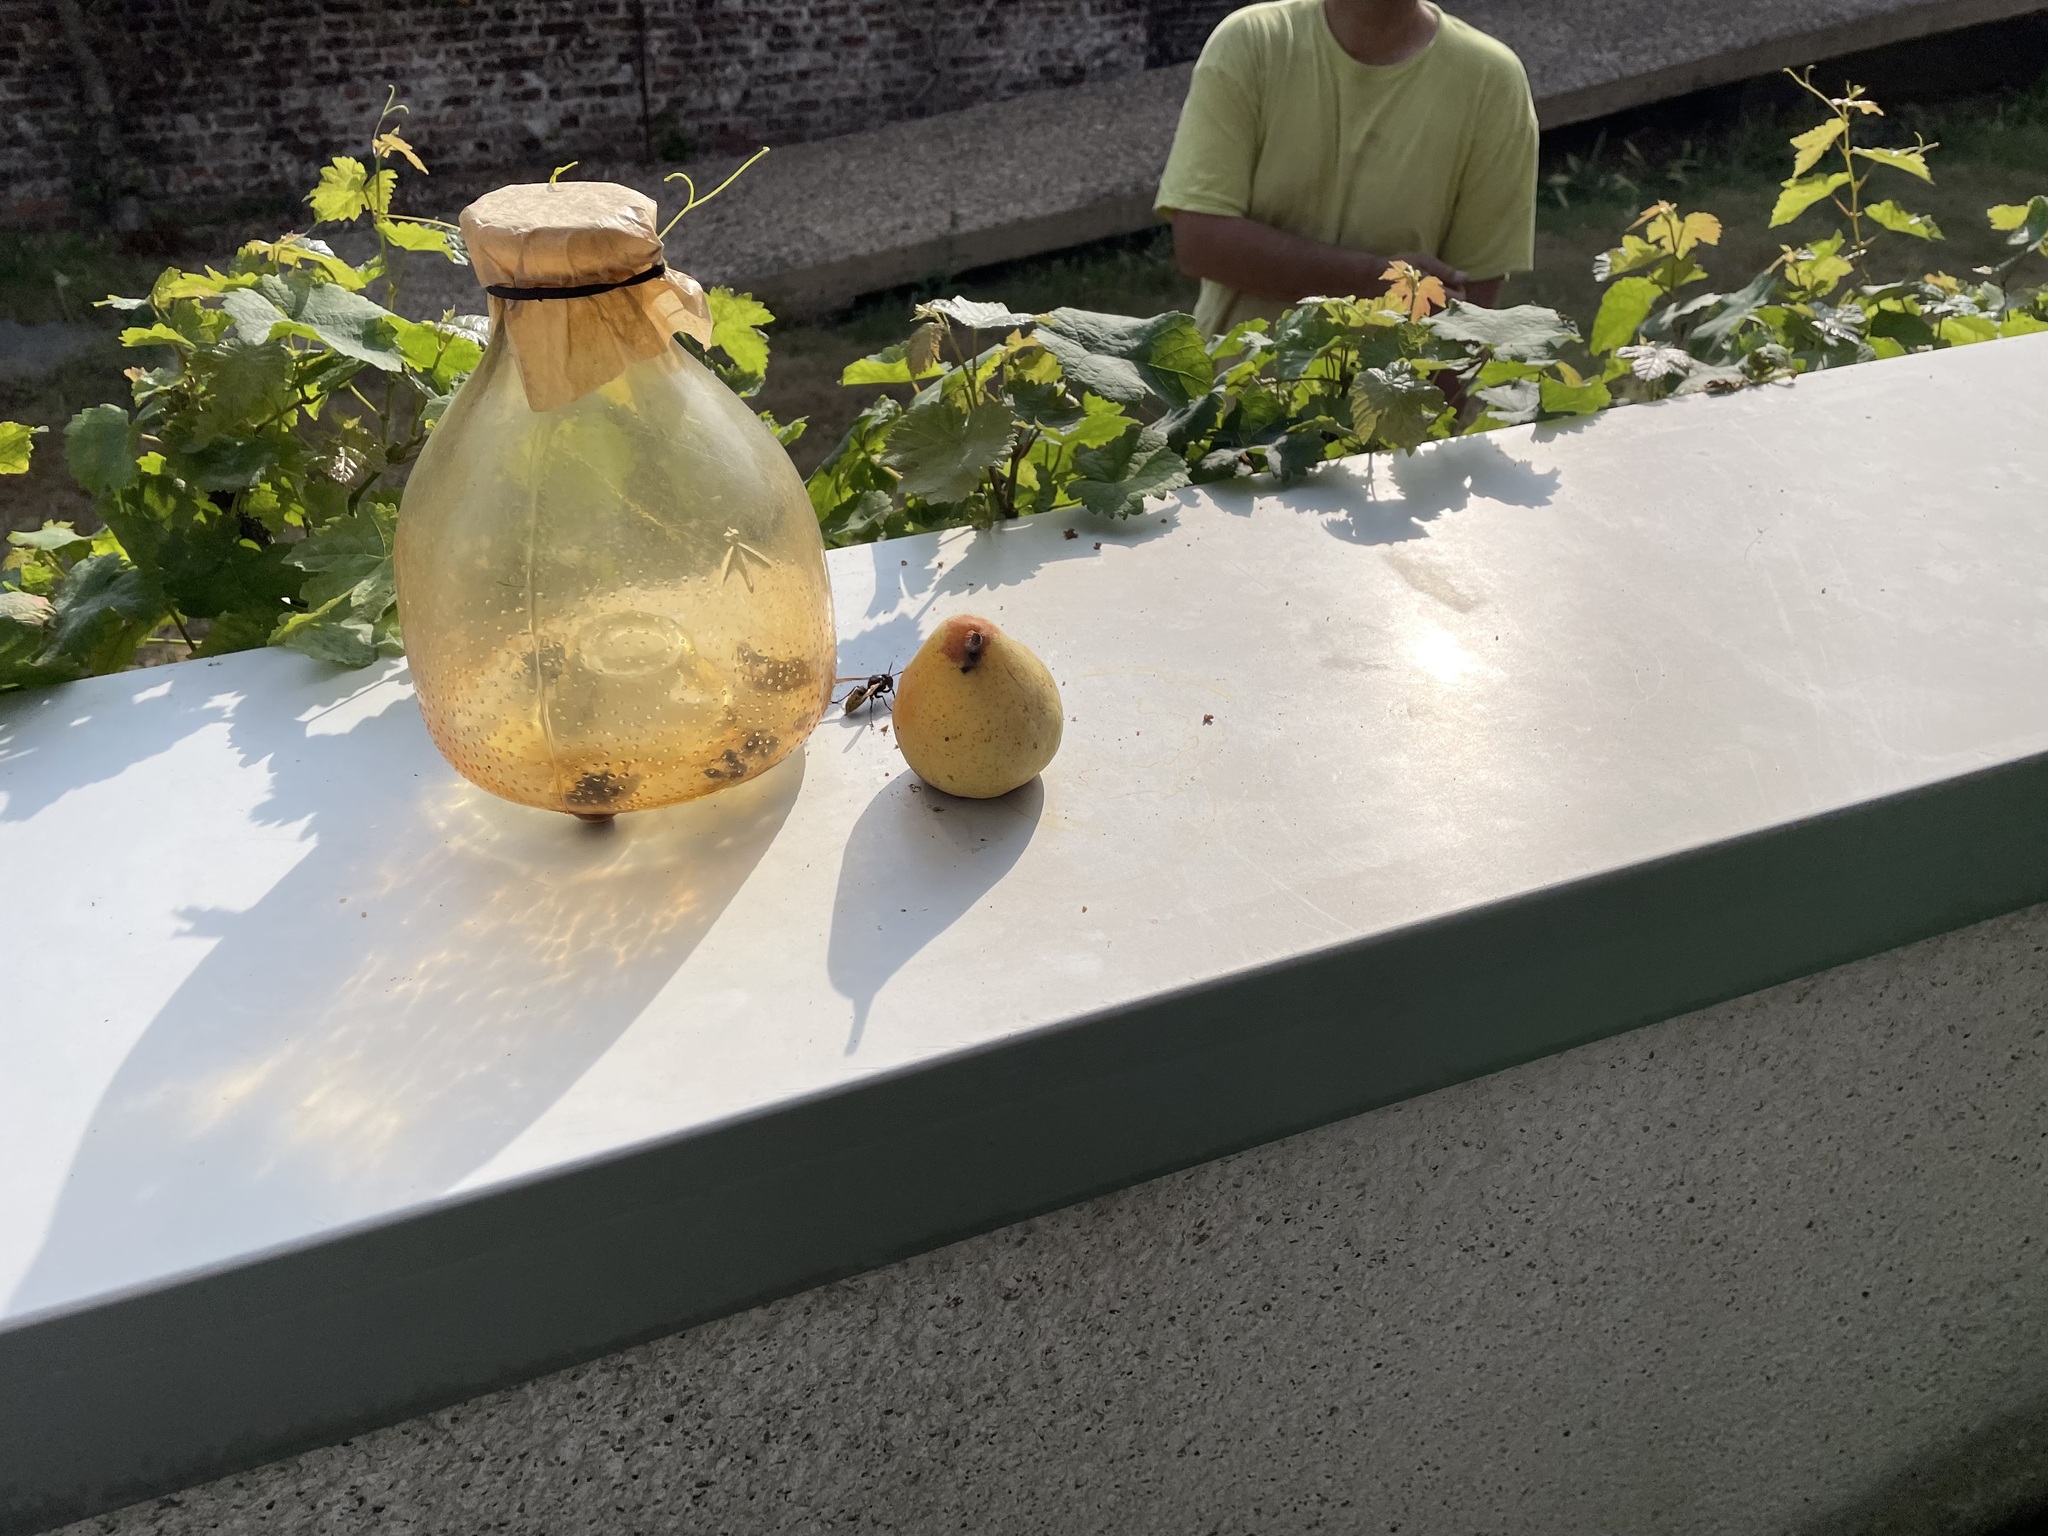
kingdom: Animalia
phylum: Arthropoda
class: Insecta
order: Hymenoptera
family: Vespidae
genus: Vespa
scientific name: Vespa crabro
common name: Hornet
